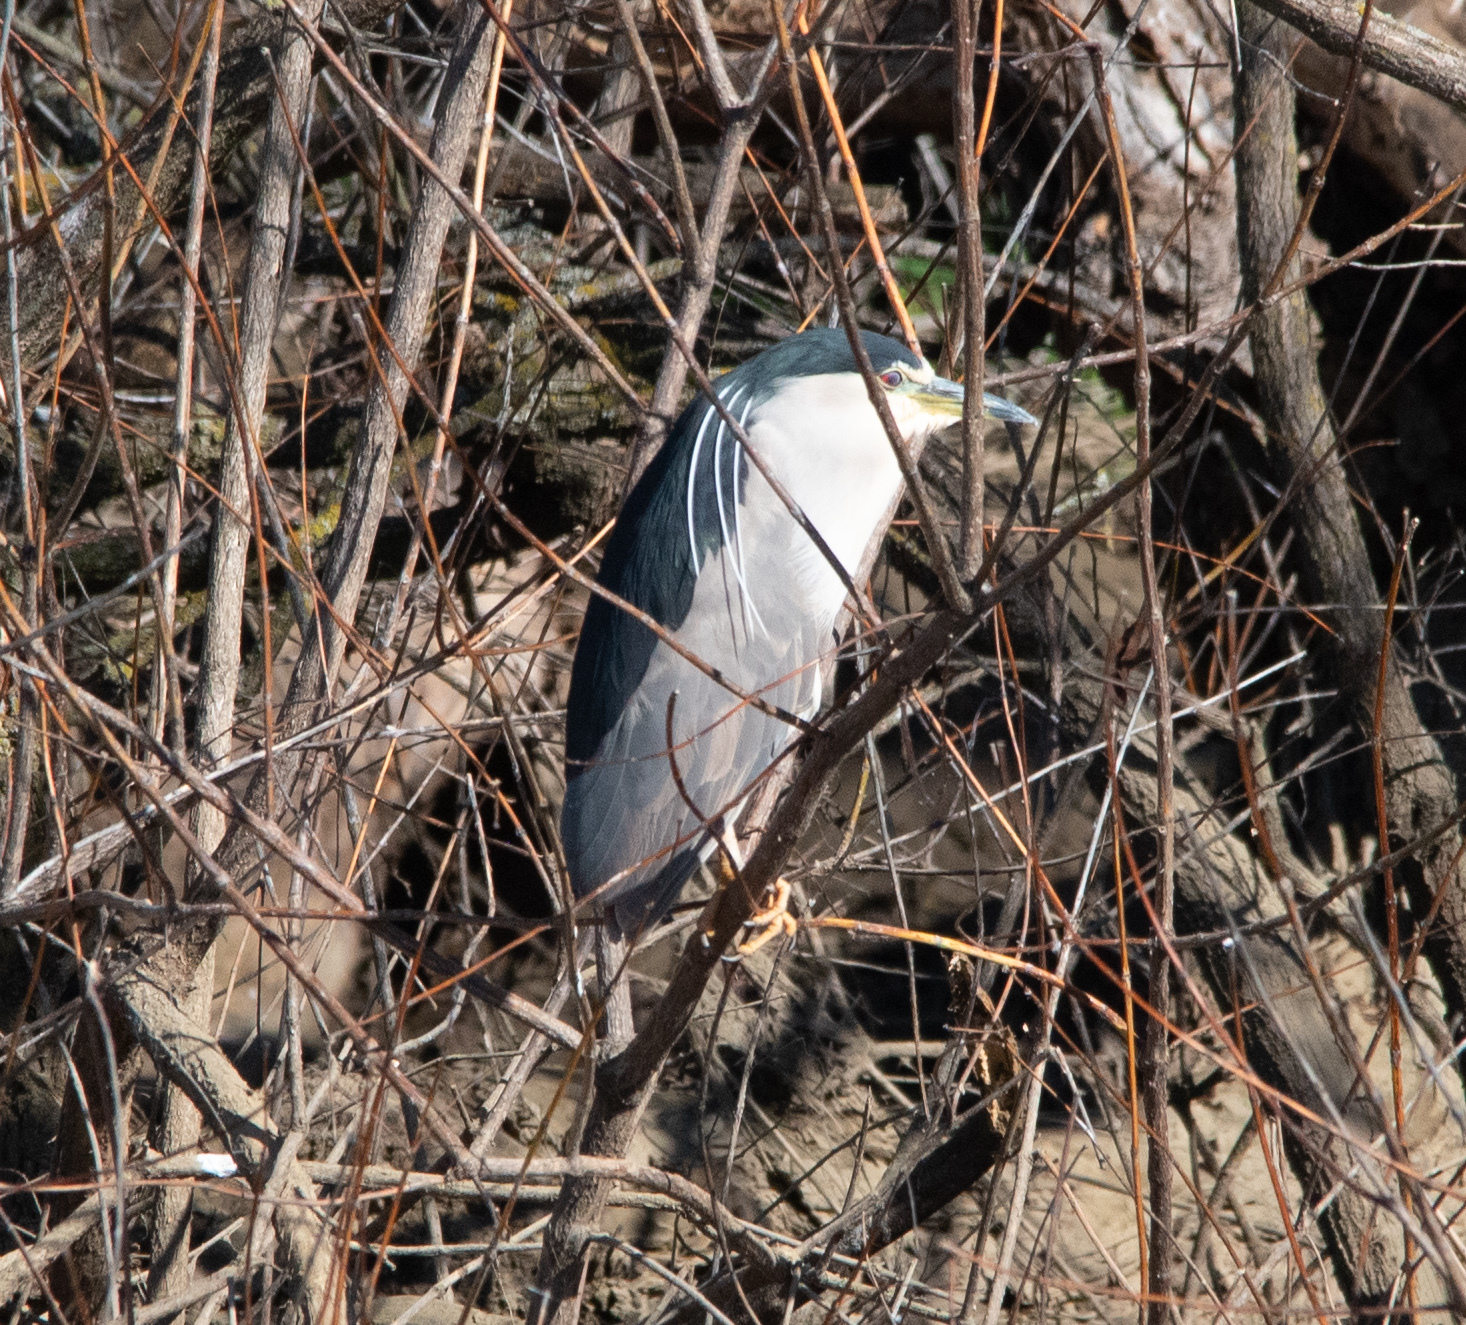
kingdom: Animalia
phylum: Chordata
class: Aves
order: Pelecaniformes
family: Ardeidae
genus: Nycticorax
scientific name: Nycticorax nycticorax
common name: Black-crowned night heron
